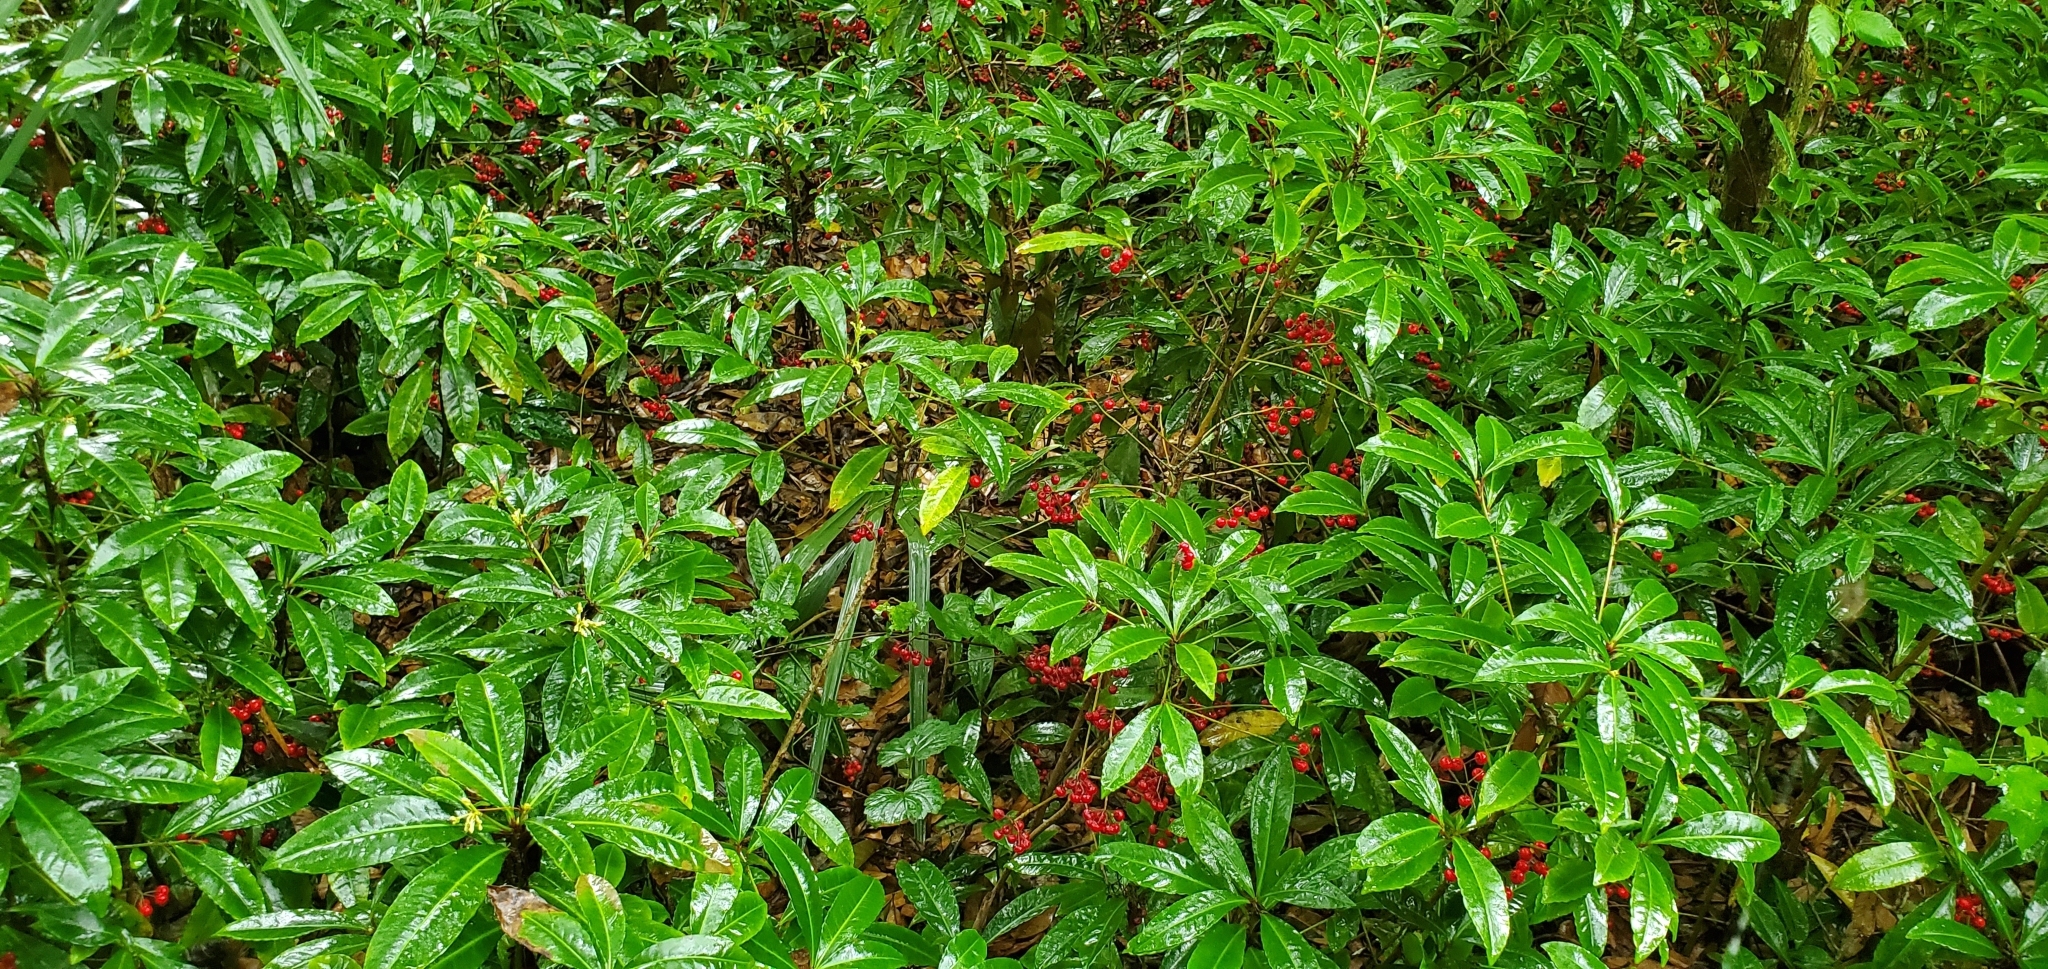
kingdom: Plantae
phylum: Tracheophyta
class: Magnoliopsida
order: Ericales
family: Primulaceae
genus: Ardisia
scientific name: Ardisia crenata
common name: Hen's eyes
